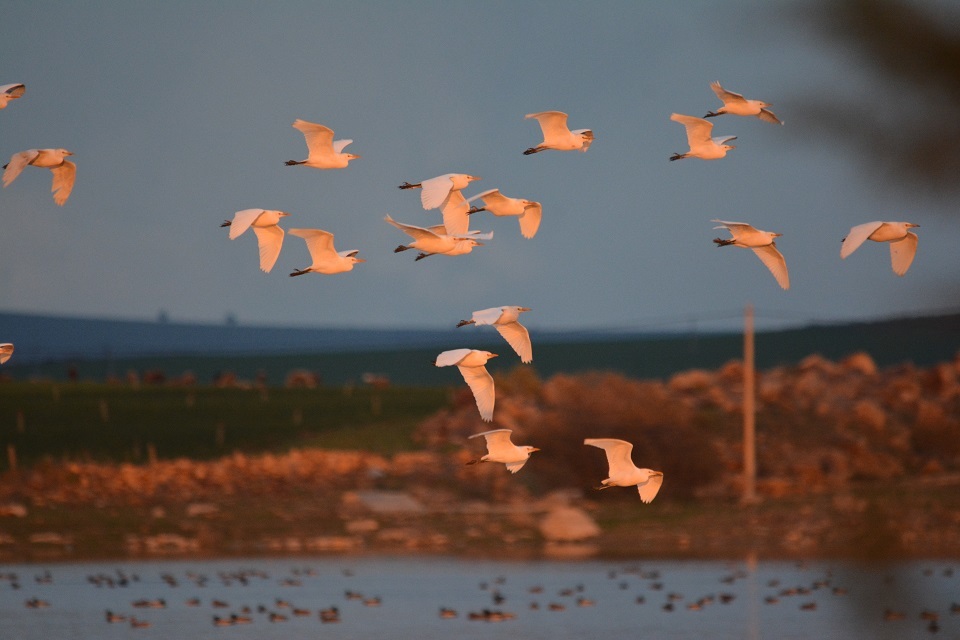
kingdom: Animalia
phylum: Chordata
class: Aves
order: Pelecaniformes
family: Ardeidae
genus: Bubulcus
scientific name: Bubulcus ibis
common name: Cattle egret
